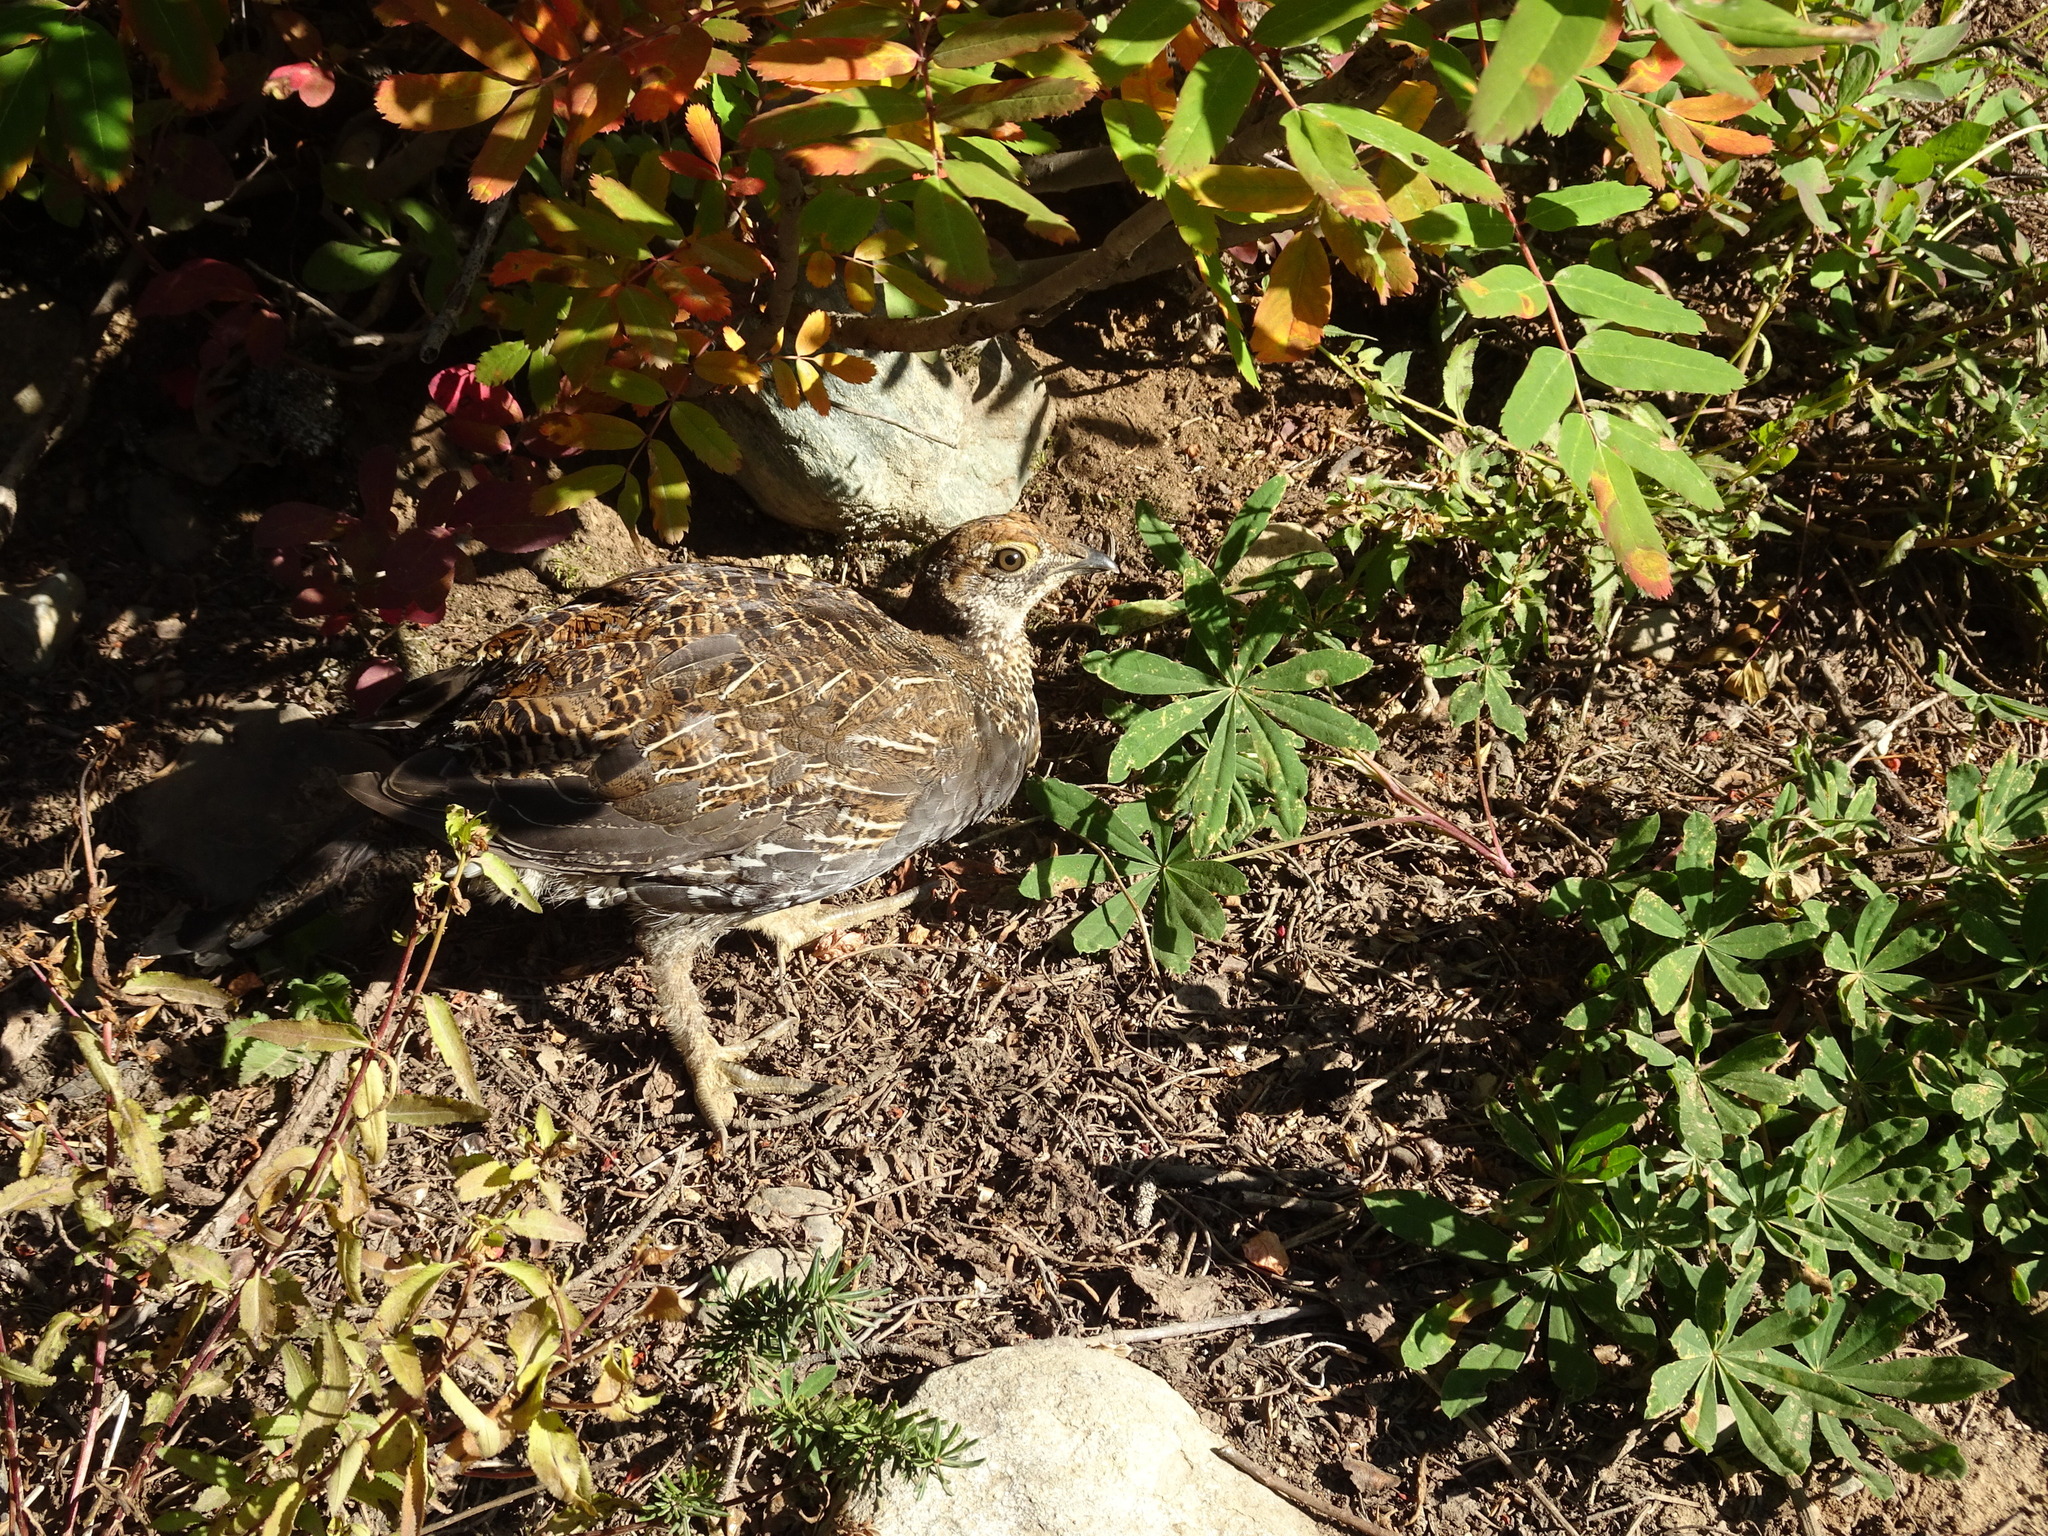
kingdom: Animalia
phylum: Chordata
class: Aves
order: Galliformes
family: Phasianidae
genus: Dendragapus
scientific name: Dendragapus fuliginosus
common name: Sooty grouse
